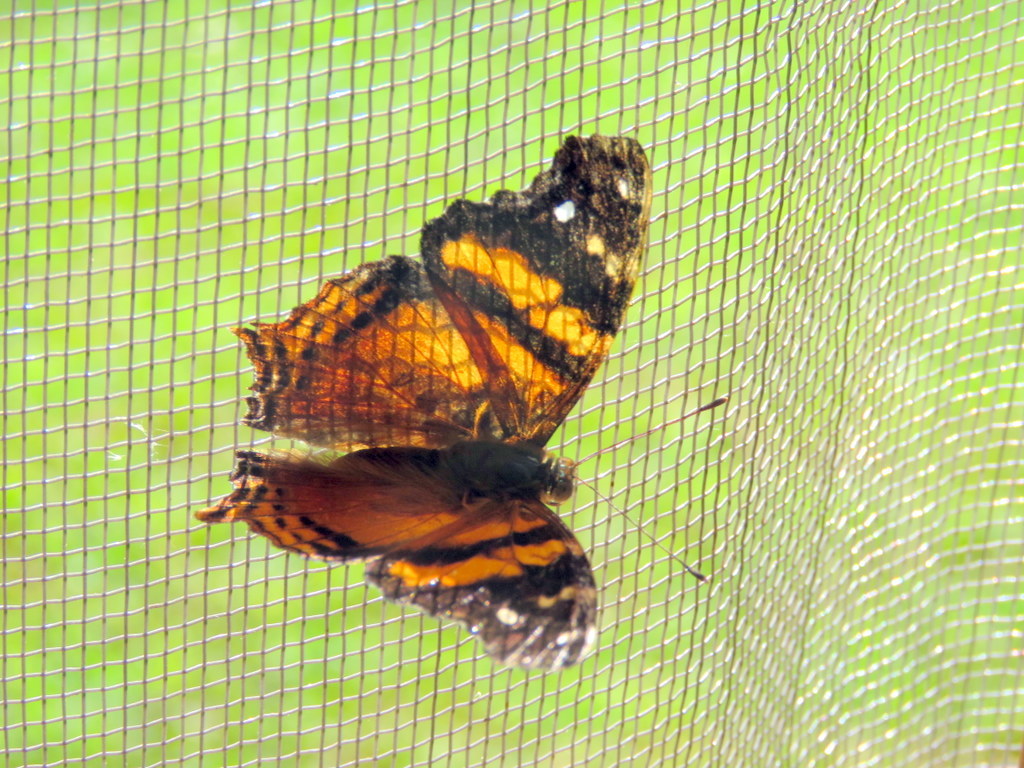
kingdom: Animalia
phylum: Arthropoda
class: Insecta
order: Lepidoptera
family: Nymphalidae
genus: Hypanartia
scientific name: Hypanartia bella
